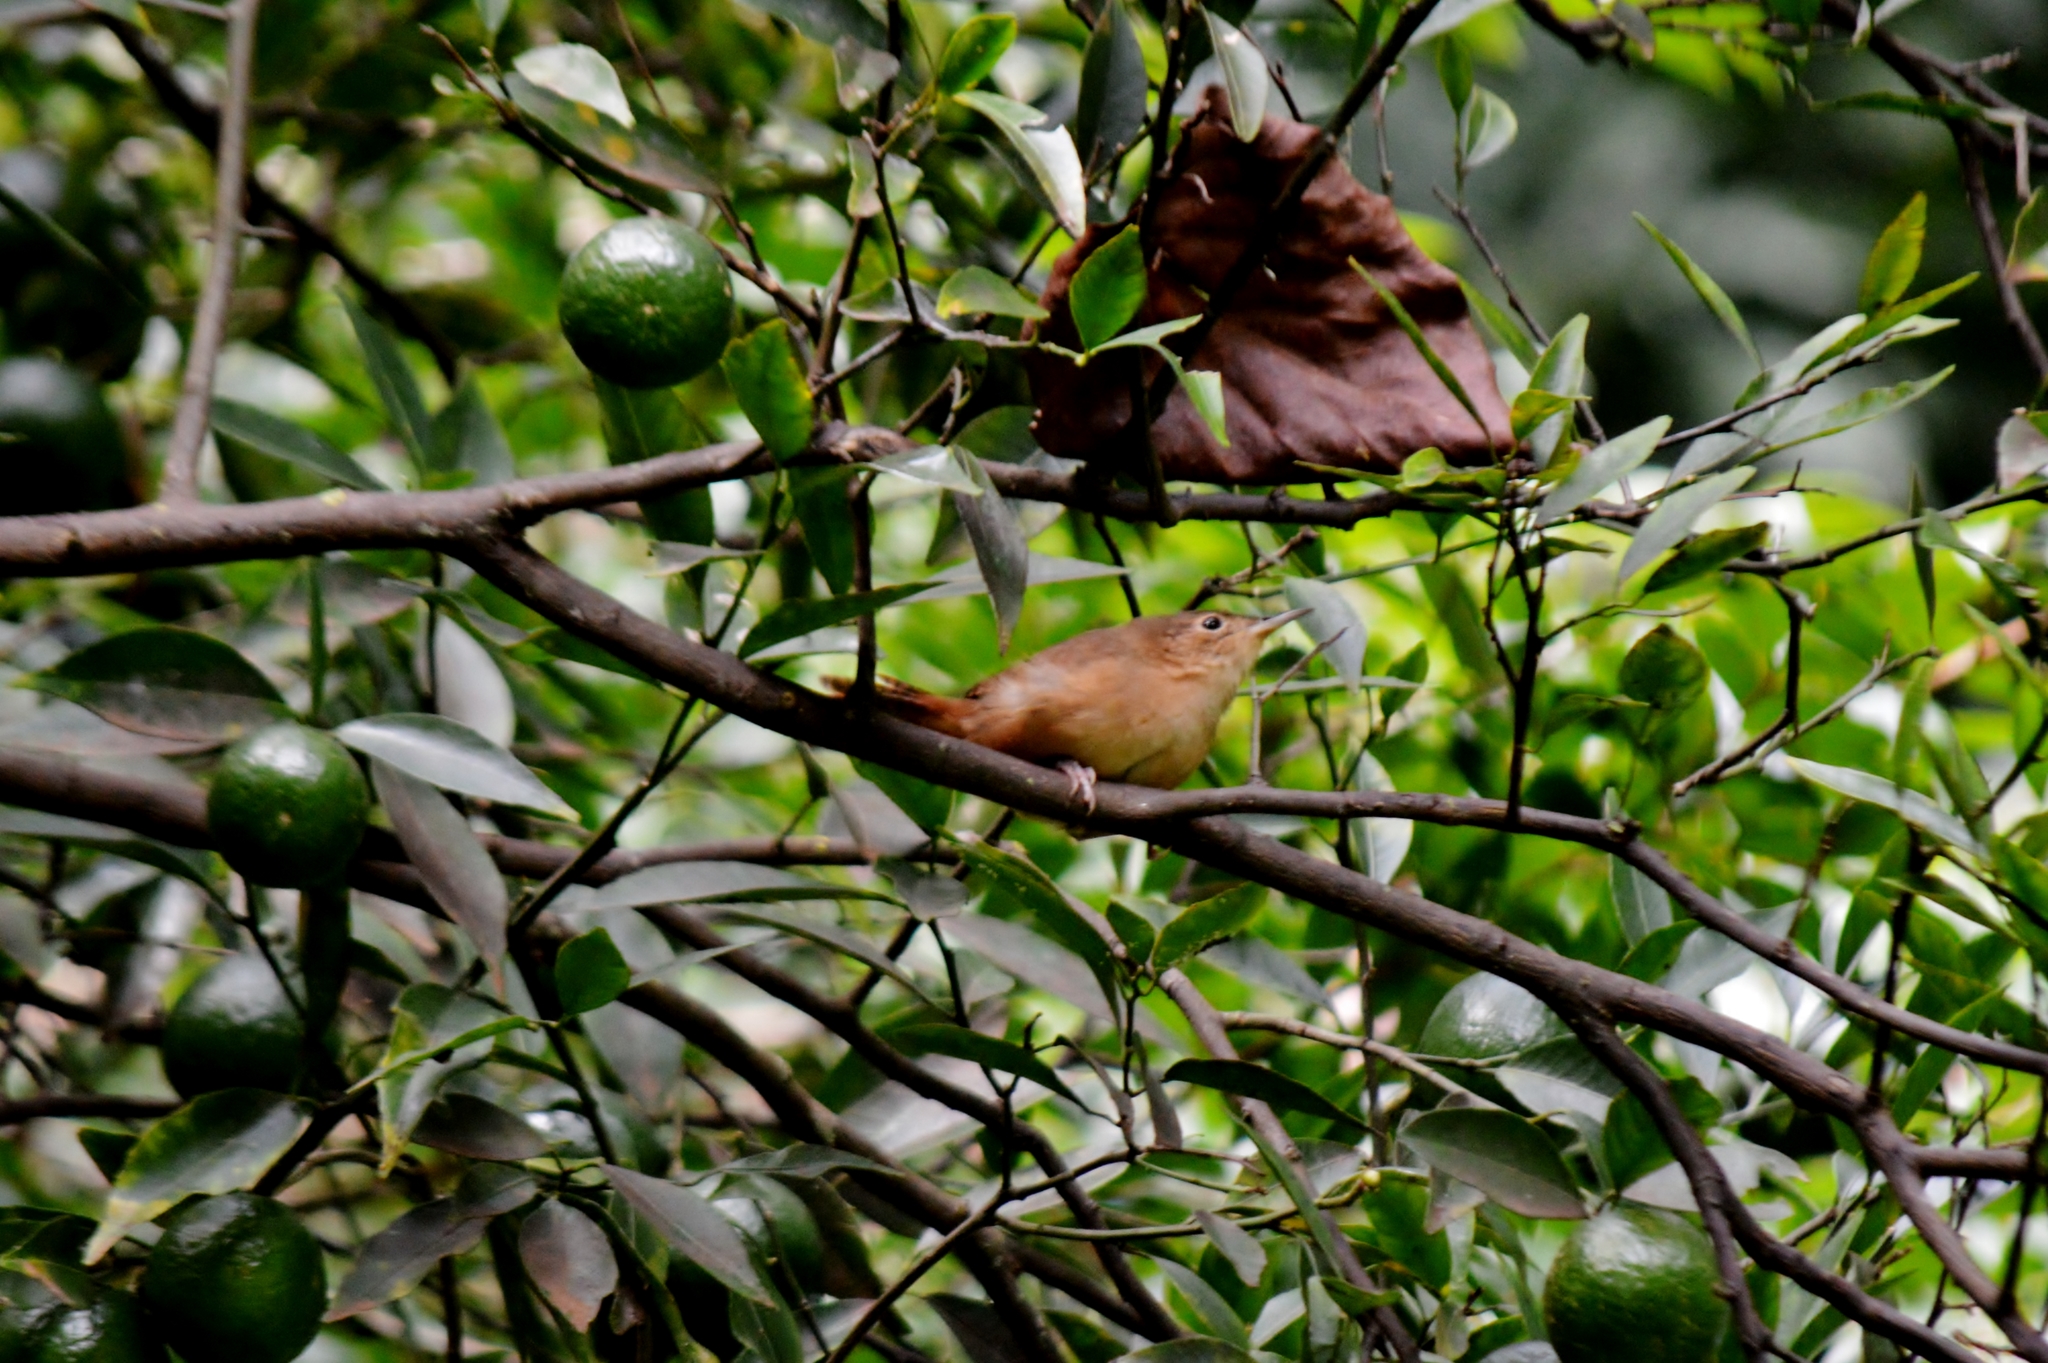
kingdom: Animalia
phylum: Chordata
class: Aves
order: Passeriformes
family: Troglodytidae
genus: Troglodytes
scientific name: Troglodytes aedon
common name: House wren
